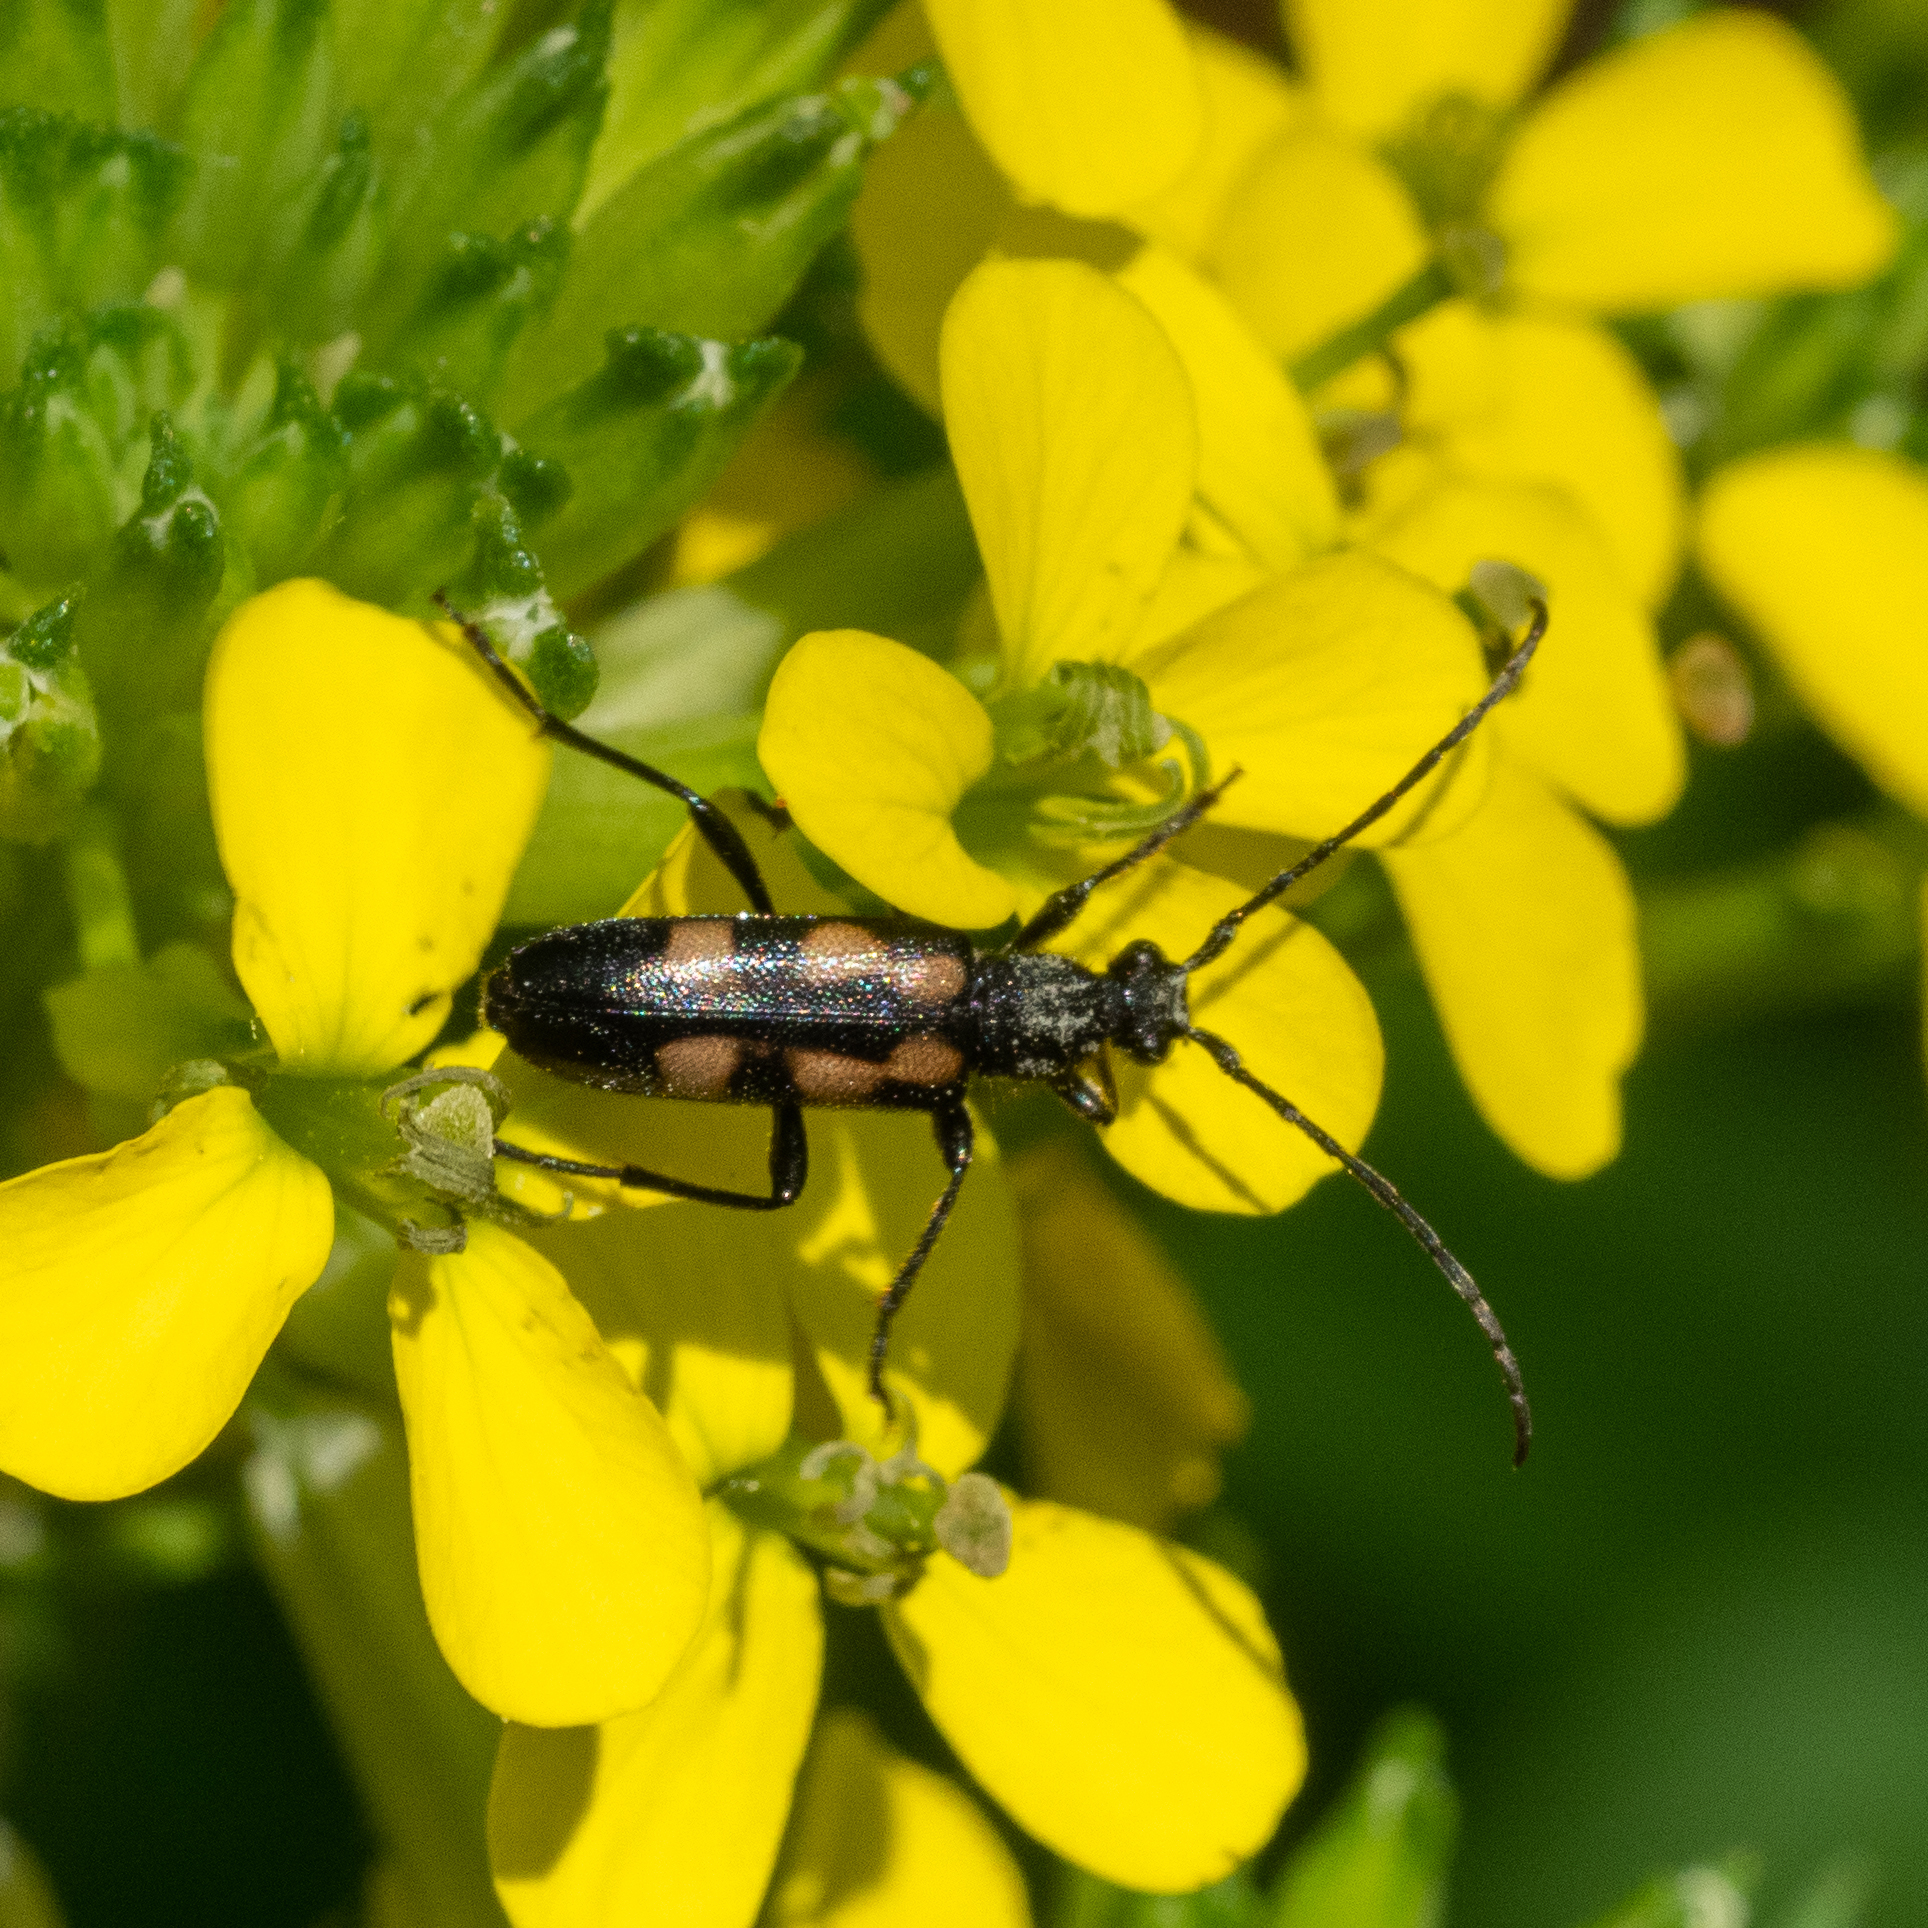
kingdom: Animalia
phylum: Arthropoda
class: Insecta
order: Coleoptera
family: Cerambycidae
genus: Anoplodera
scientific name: Anoplodera sexguttata
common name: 6 spotted longhorn
